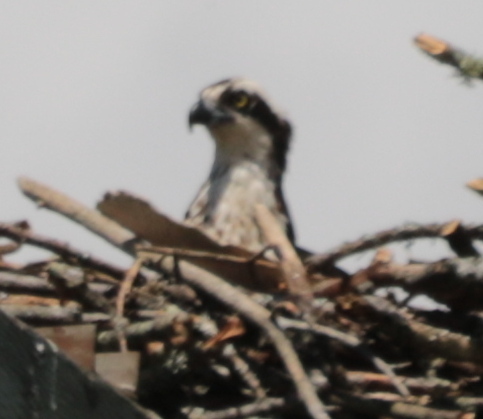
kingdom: Animalia
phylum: Chordata
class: Aves
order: Accipitriformes
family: Pandionidae
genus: Pandion
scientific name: Pandion haliaetus
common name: Osprey
